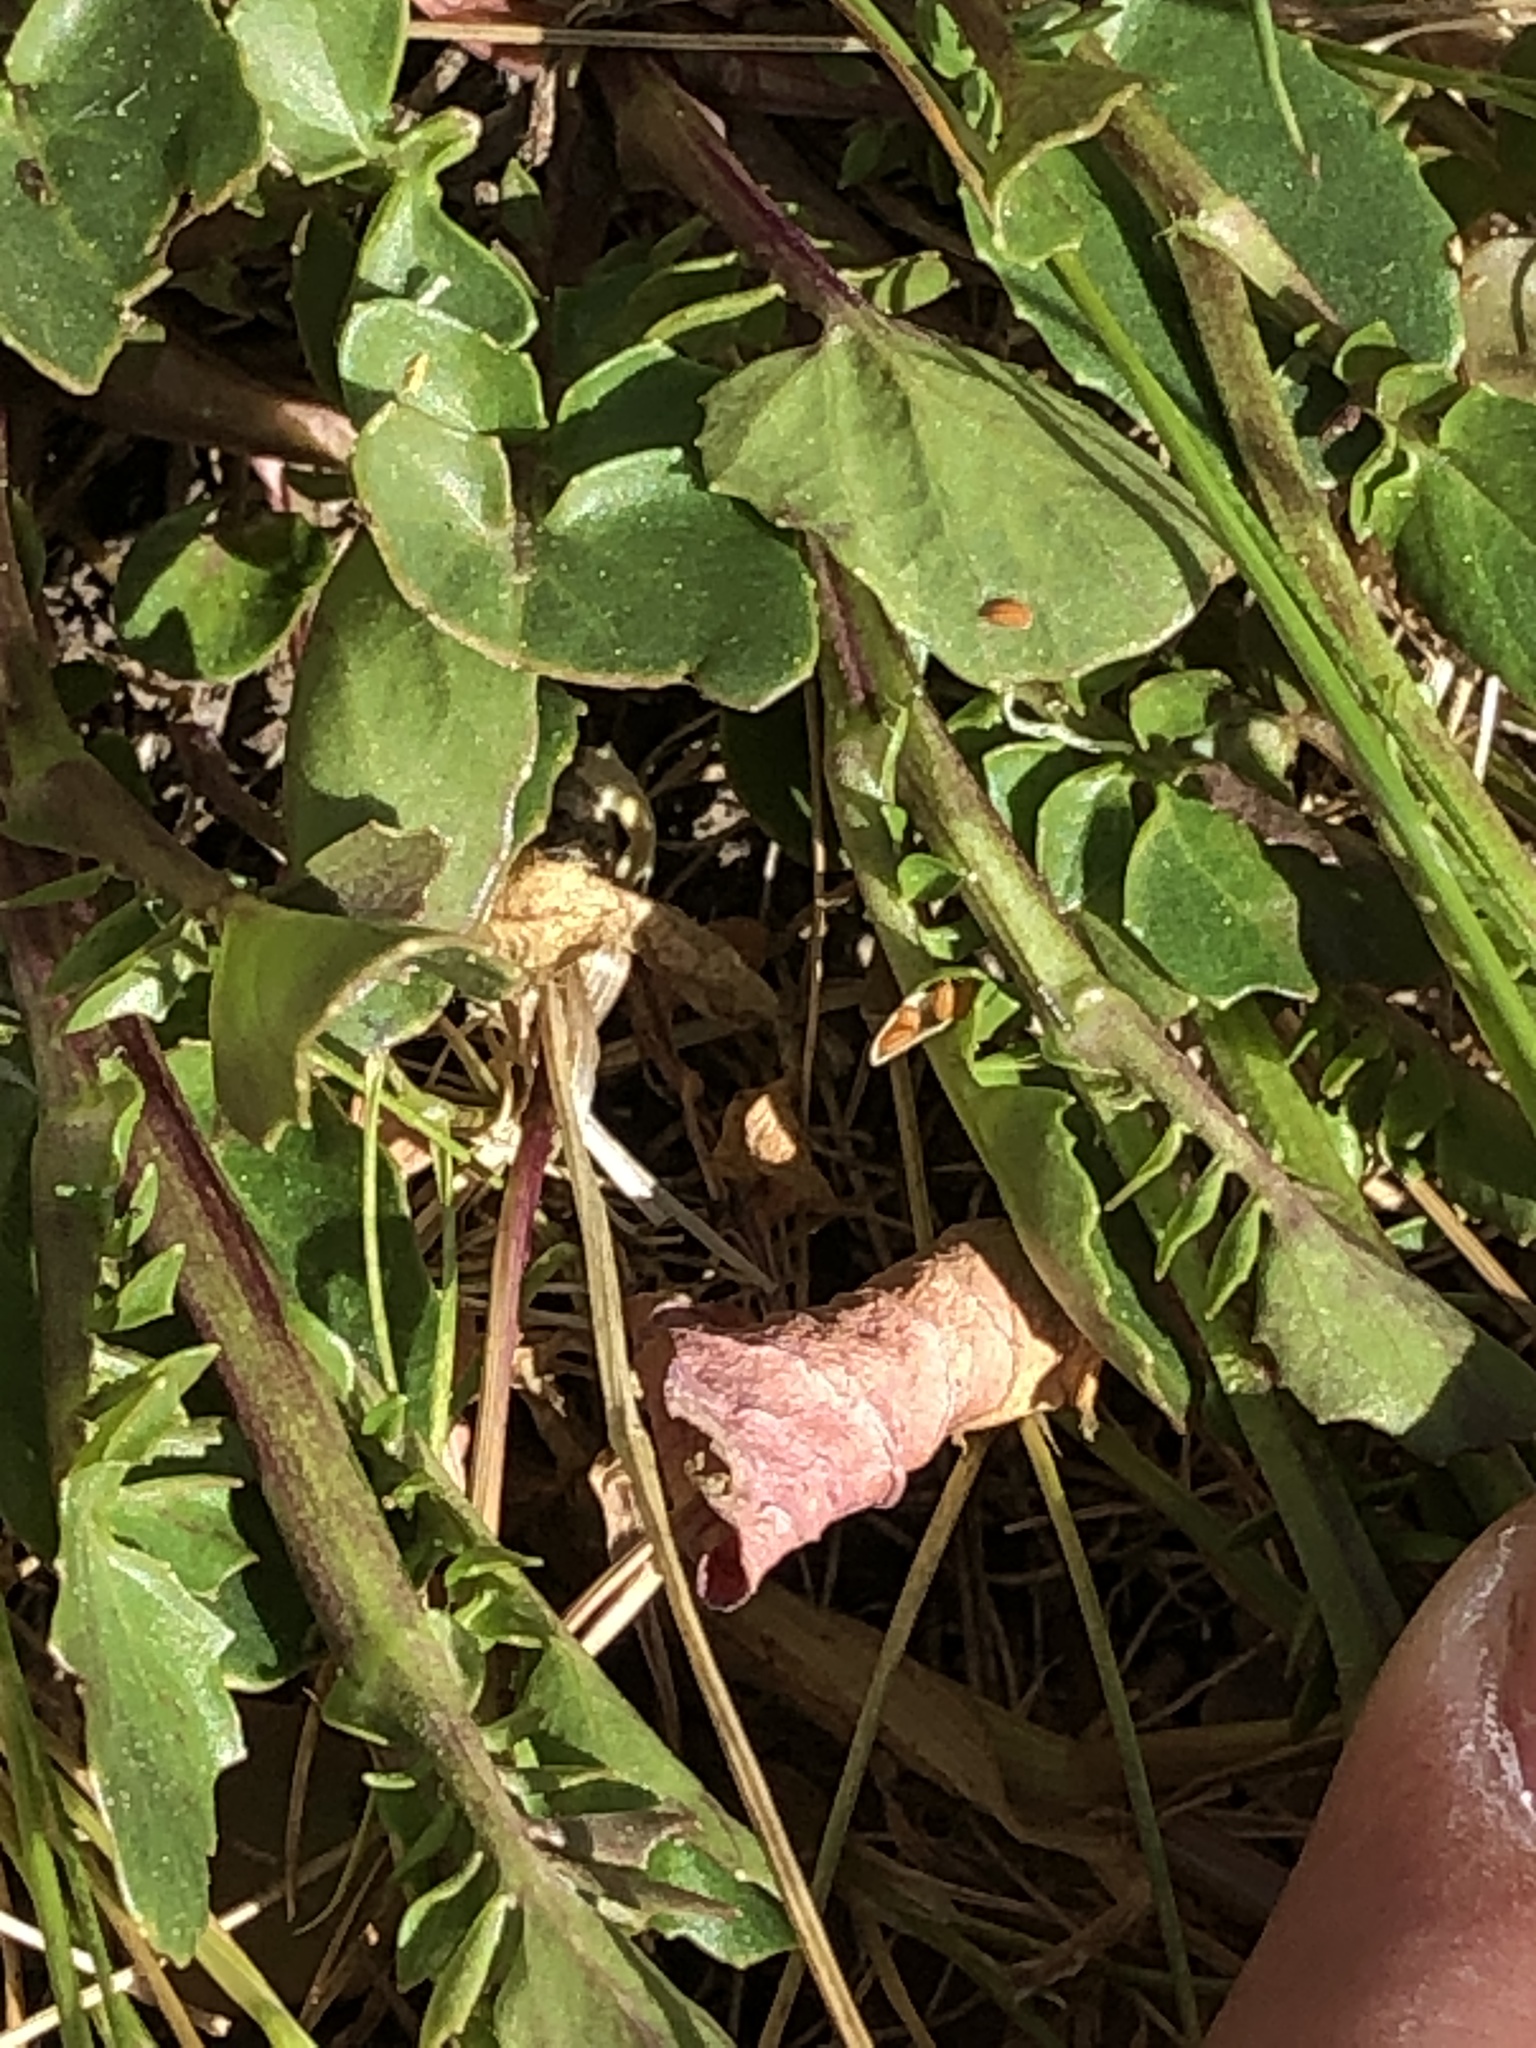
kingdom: Plantae
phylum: Tracheophyta
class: Magnoliopsida
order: Brassicales
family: Brassicaceae
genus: Barbarea
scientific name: Barbarea orthoceras
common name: American wintercress
